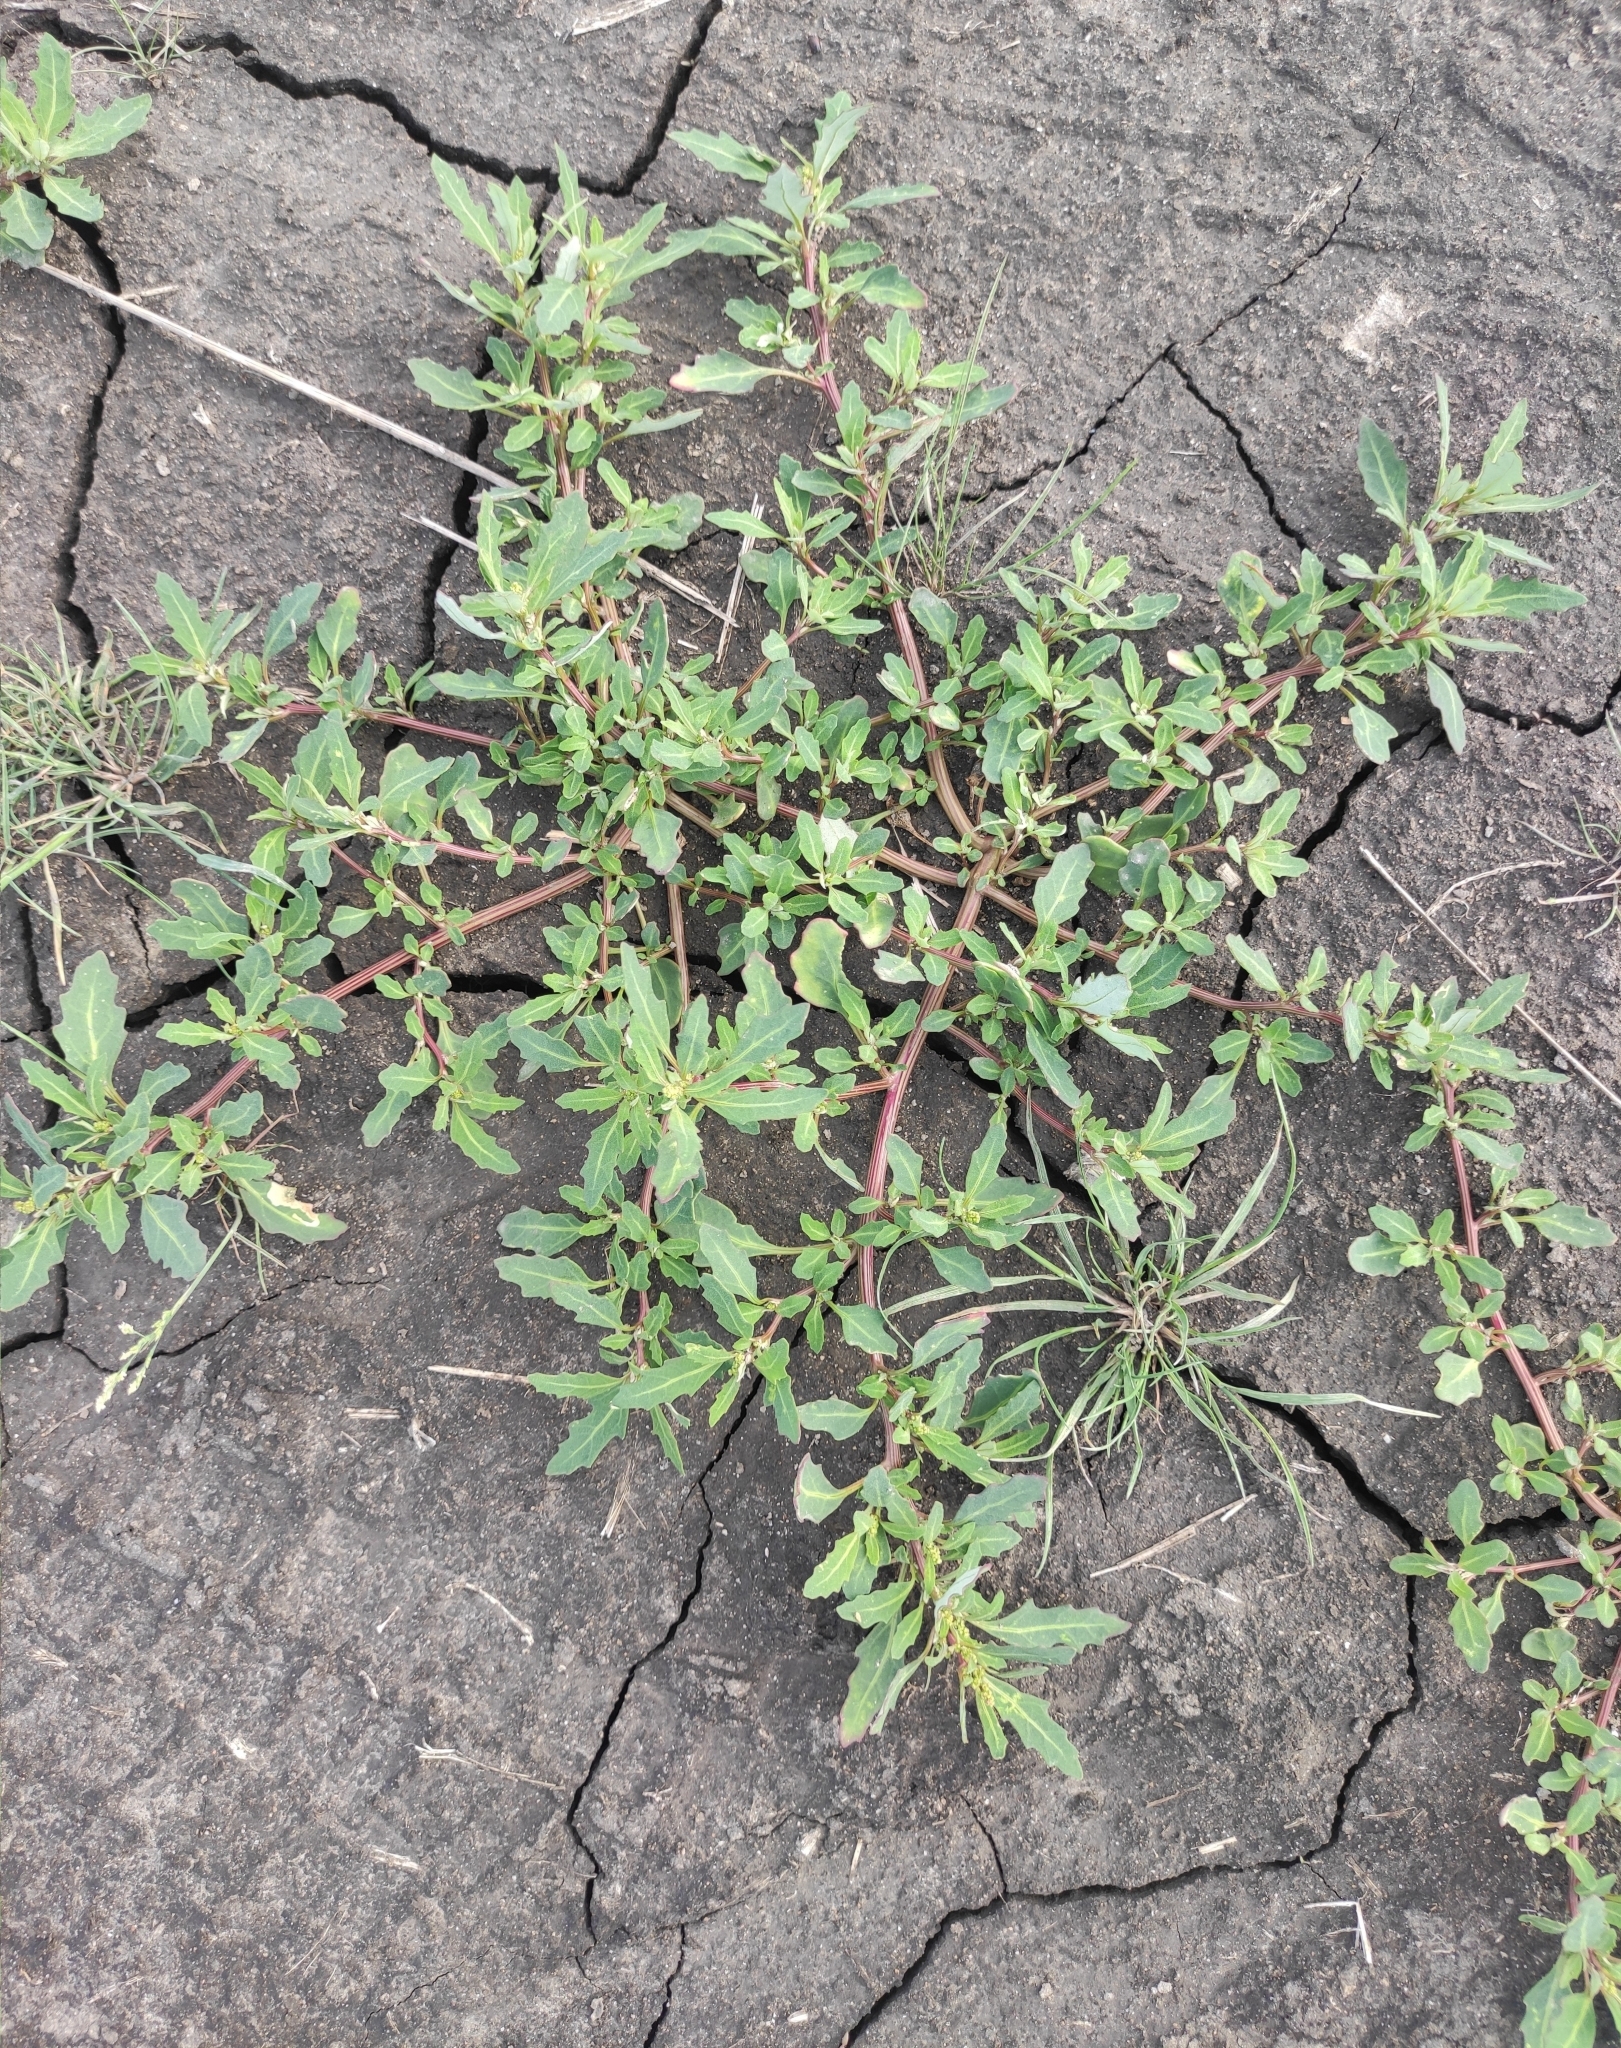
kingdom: Plantae
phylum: Tracheophyta
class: Magnoliopsida
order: Caryophyllales
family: Amaranthaceae
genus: Oxybasis
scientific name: Oxybasis glauca
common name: Glaucous goosefoot
